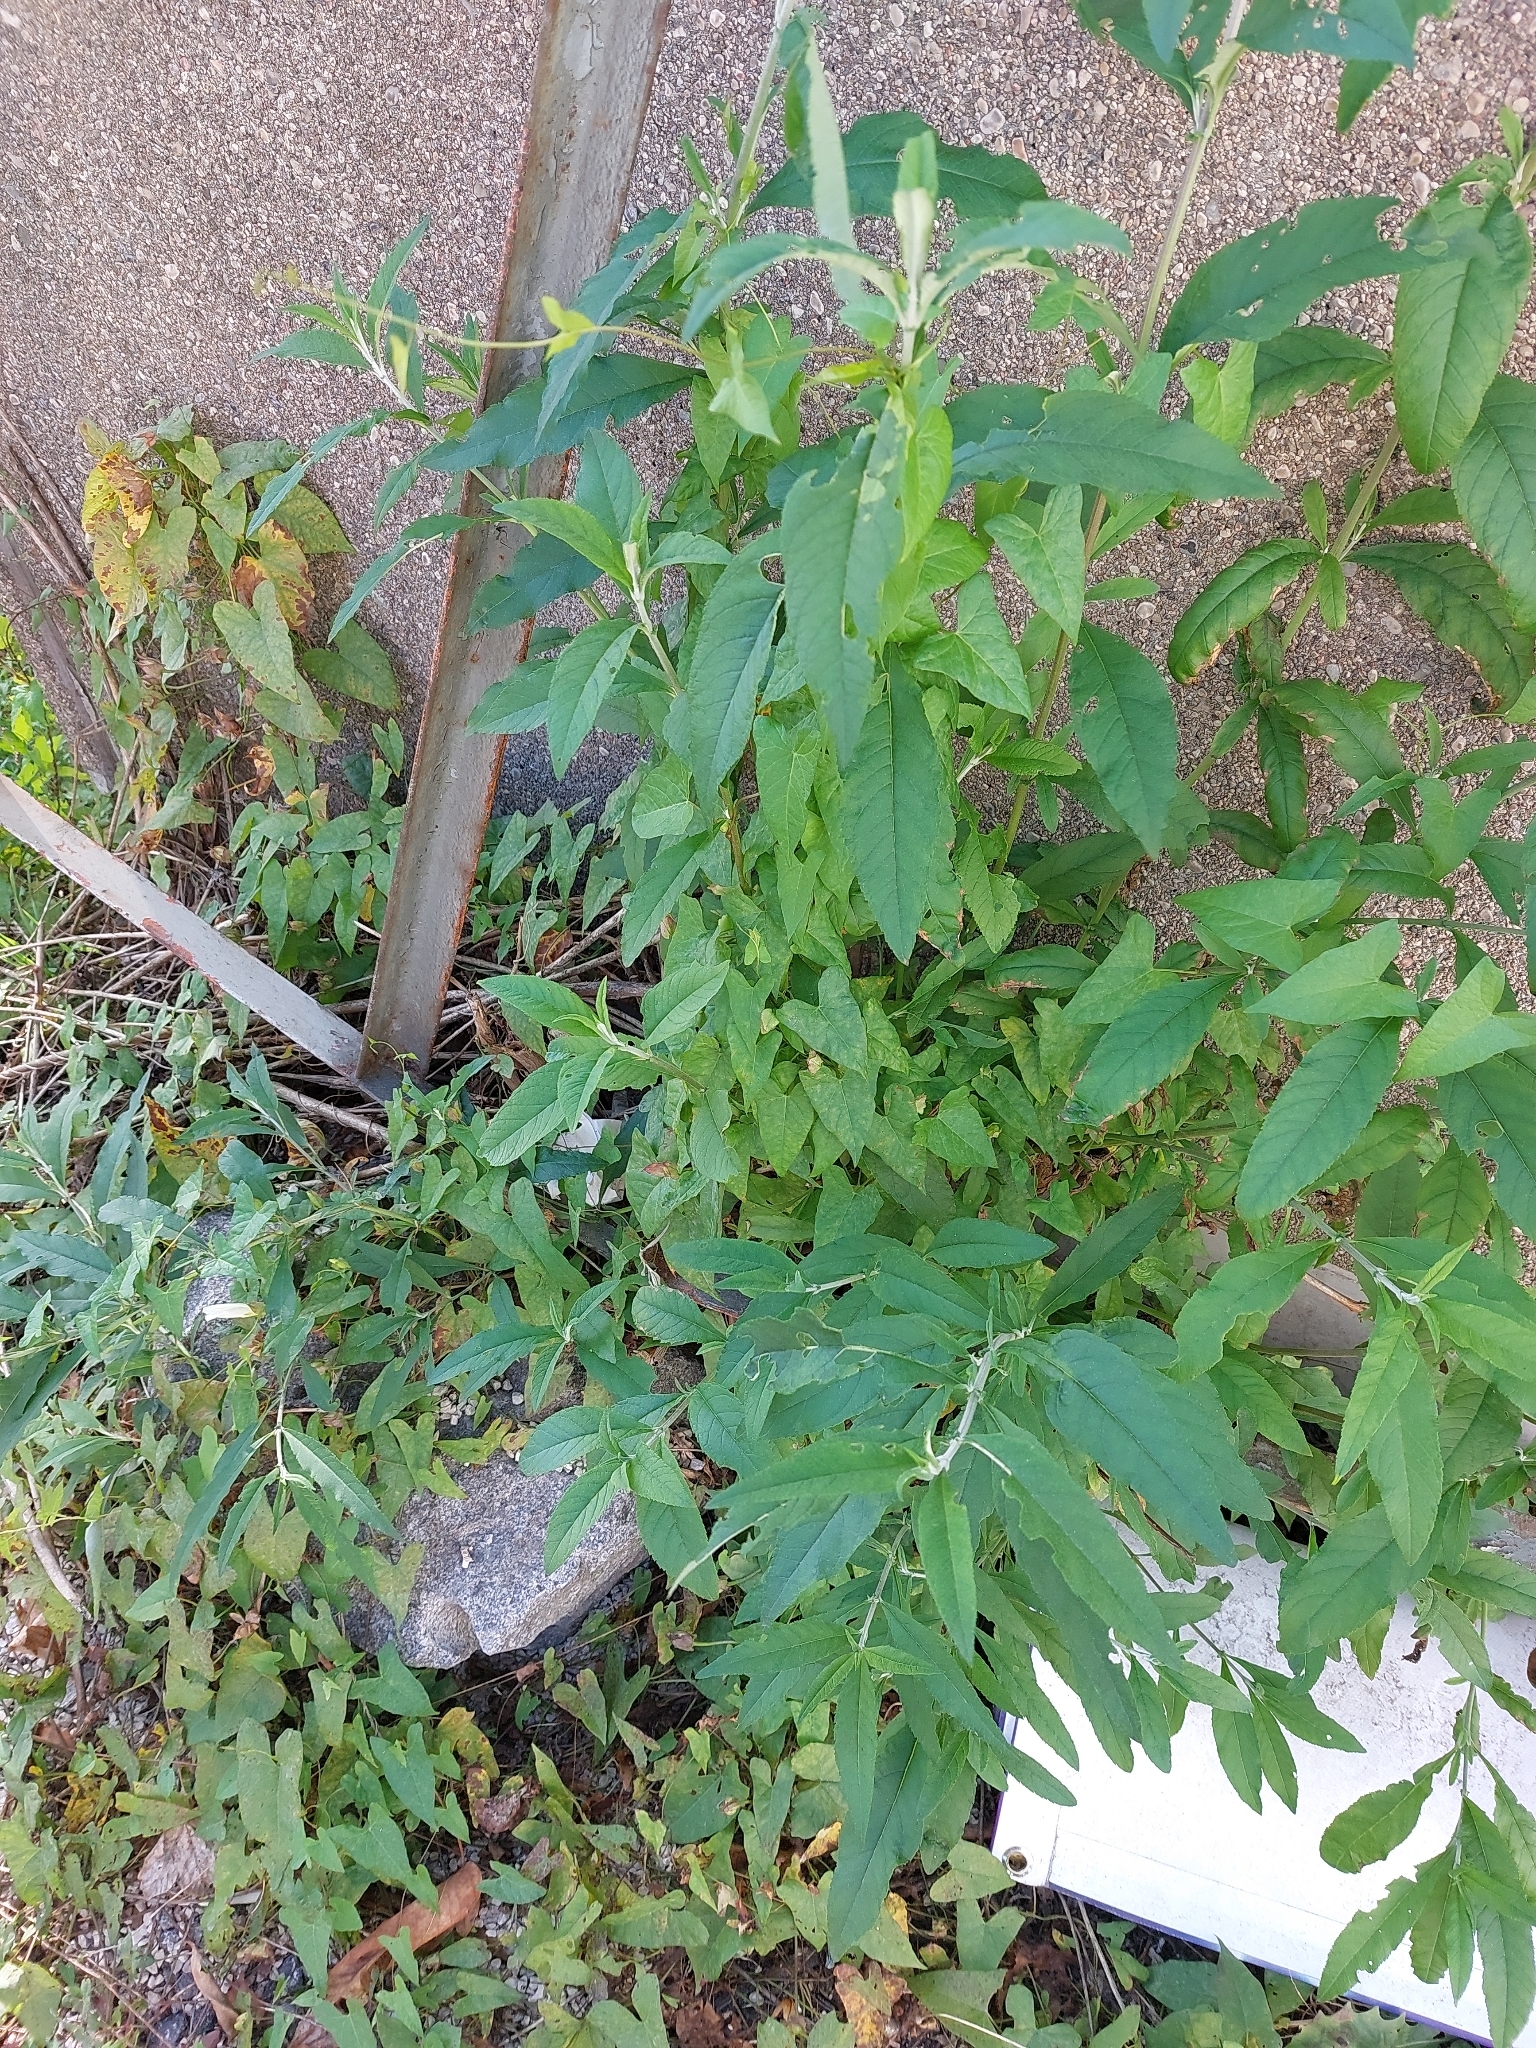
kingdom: Plantae
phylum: Tracheophyta
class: Magnoliopsida
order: Lamiales
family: Scrophulariaceae
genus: Buddleja
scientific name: Buddleja davidii
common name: Butterfly-bush
